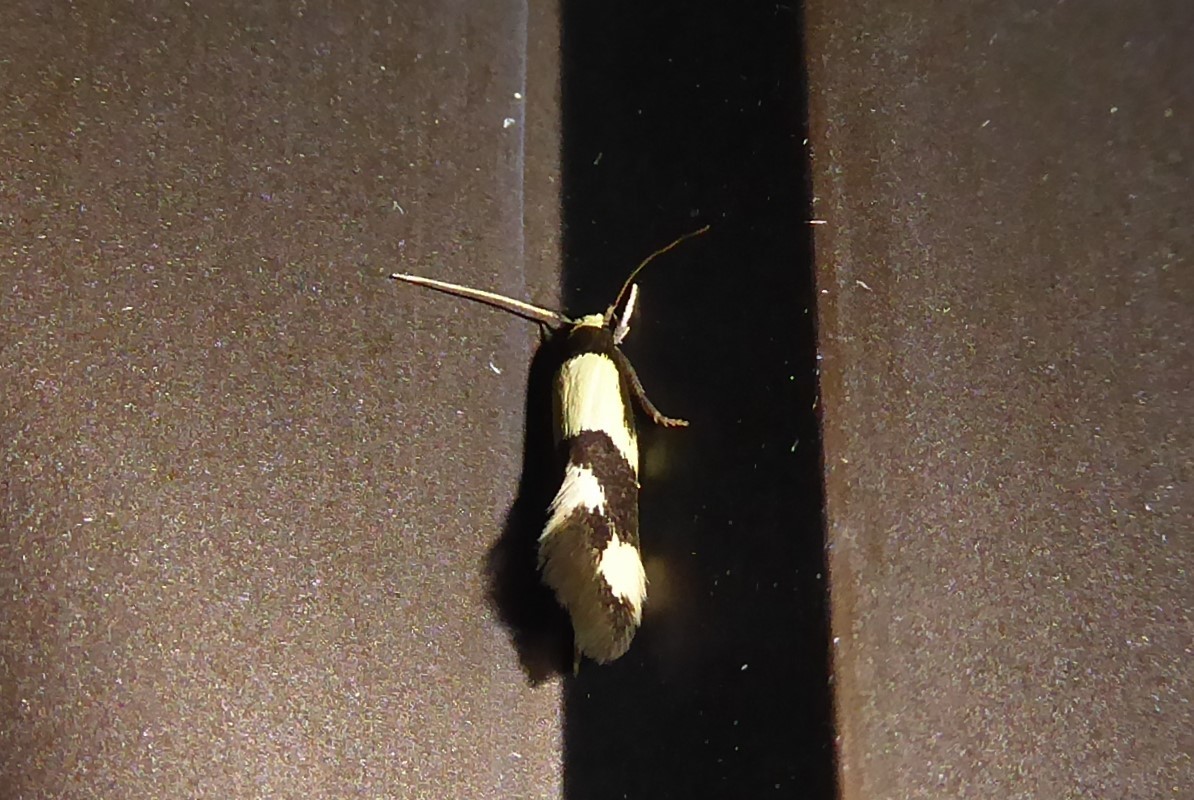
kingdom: Animalia
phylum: Arthropoda
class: Insecta
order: Lepidoptera
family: Tineidae
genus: Opogona
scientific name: Opogona comptella
